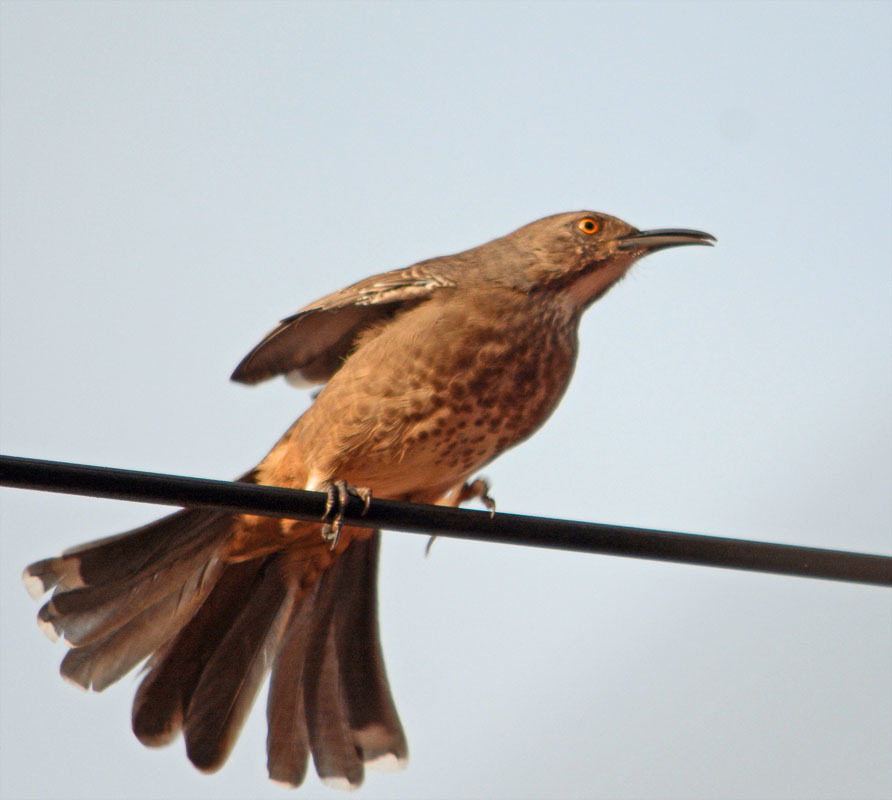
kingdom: Animalia
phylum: Chordata
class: Aves
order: Passeriformes
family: Mimidae
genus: Toxostoma
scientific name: Toxostoma curvirostre
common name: Curve-billed thrasher
